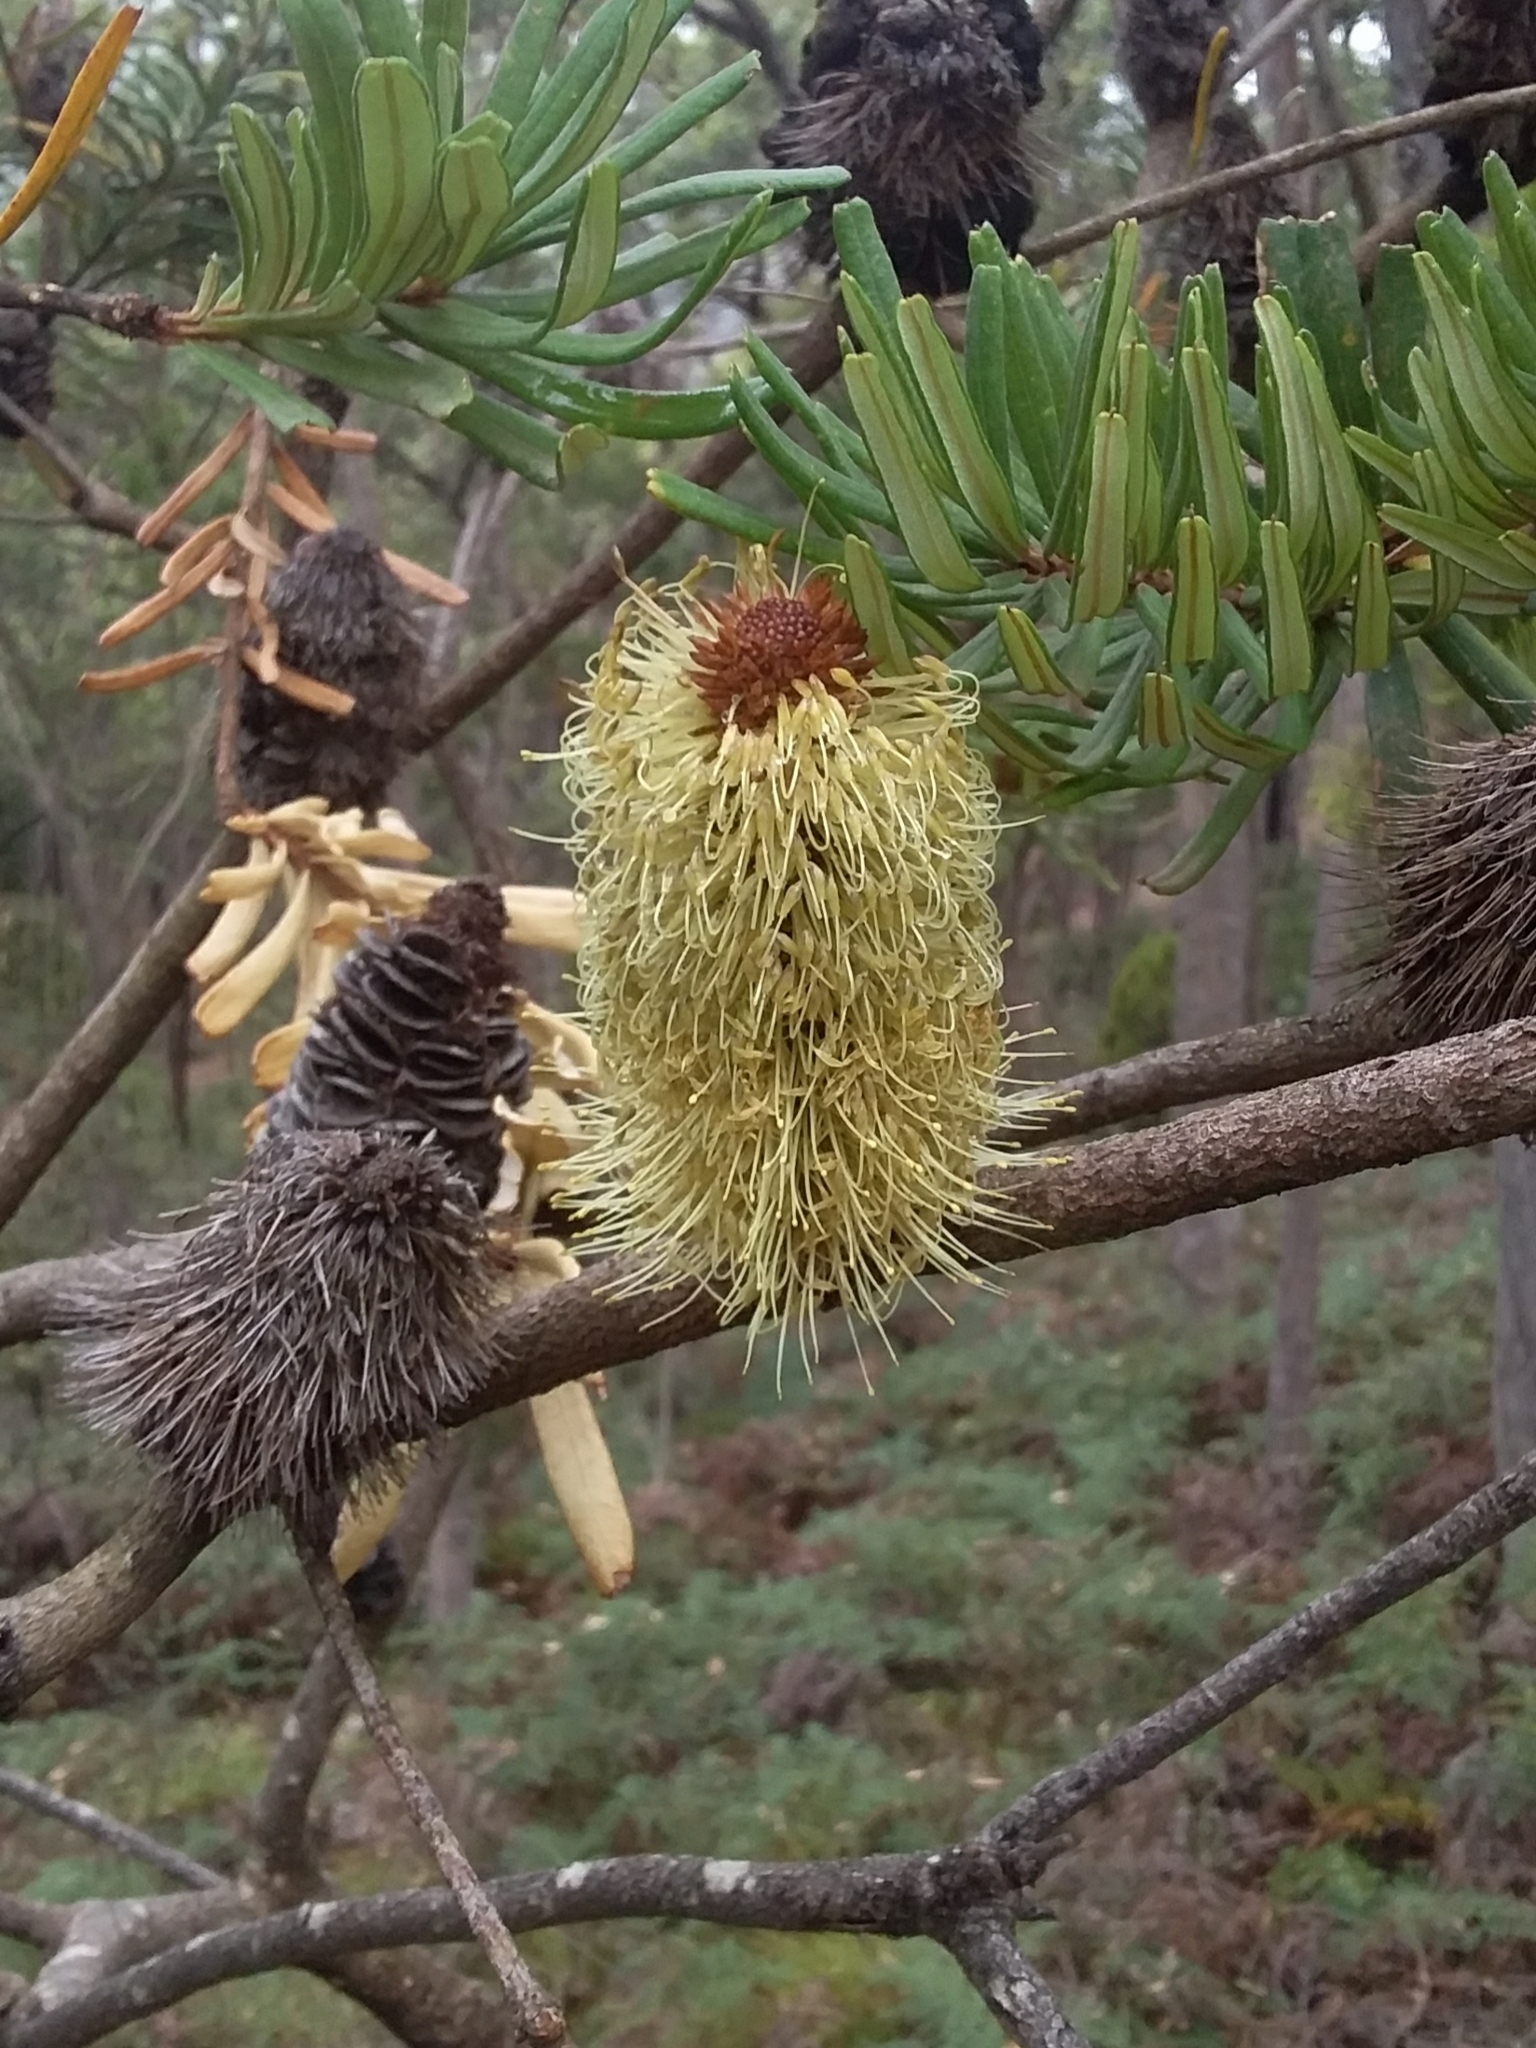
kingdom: Plantae
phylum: Tracheophyta
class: Magnoliopsida
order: Proteales
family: Proteaceae
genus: Banksia
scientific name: Banksia marginata
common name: Silver banksia
